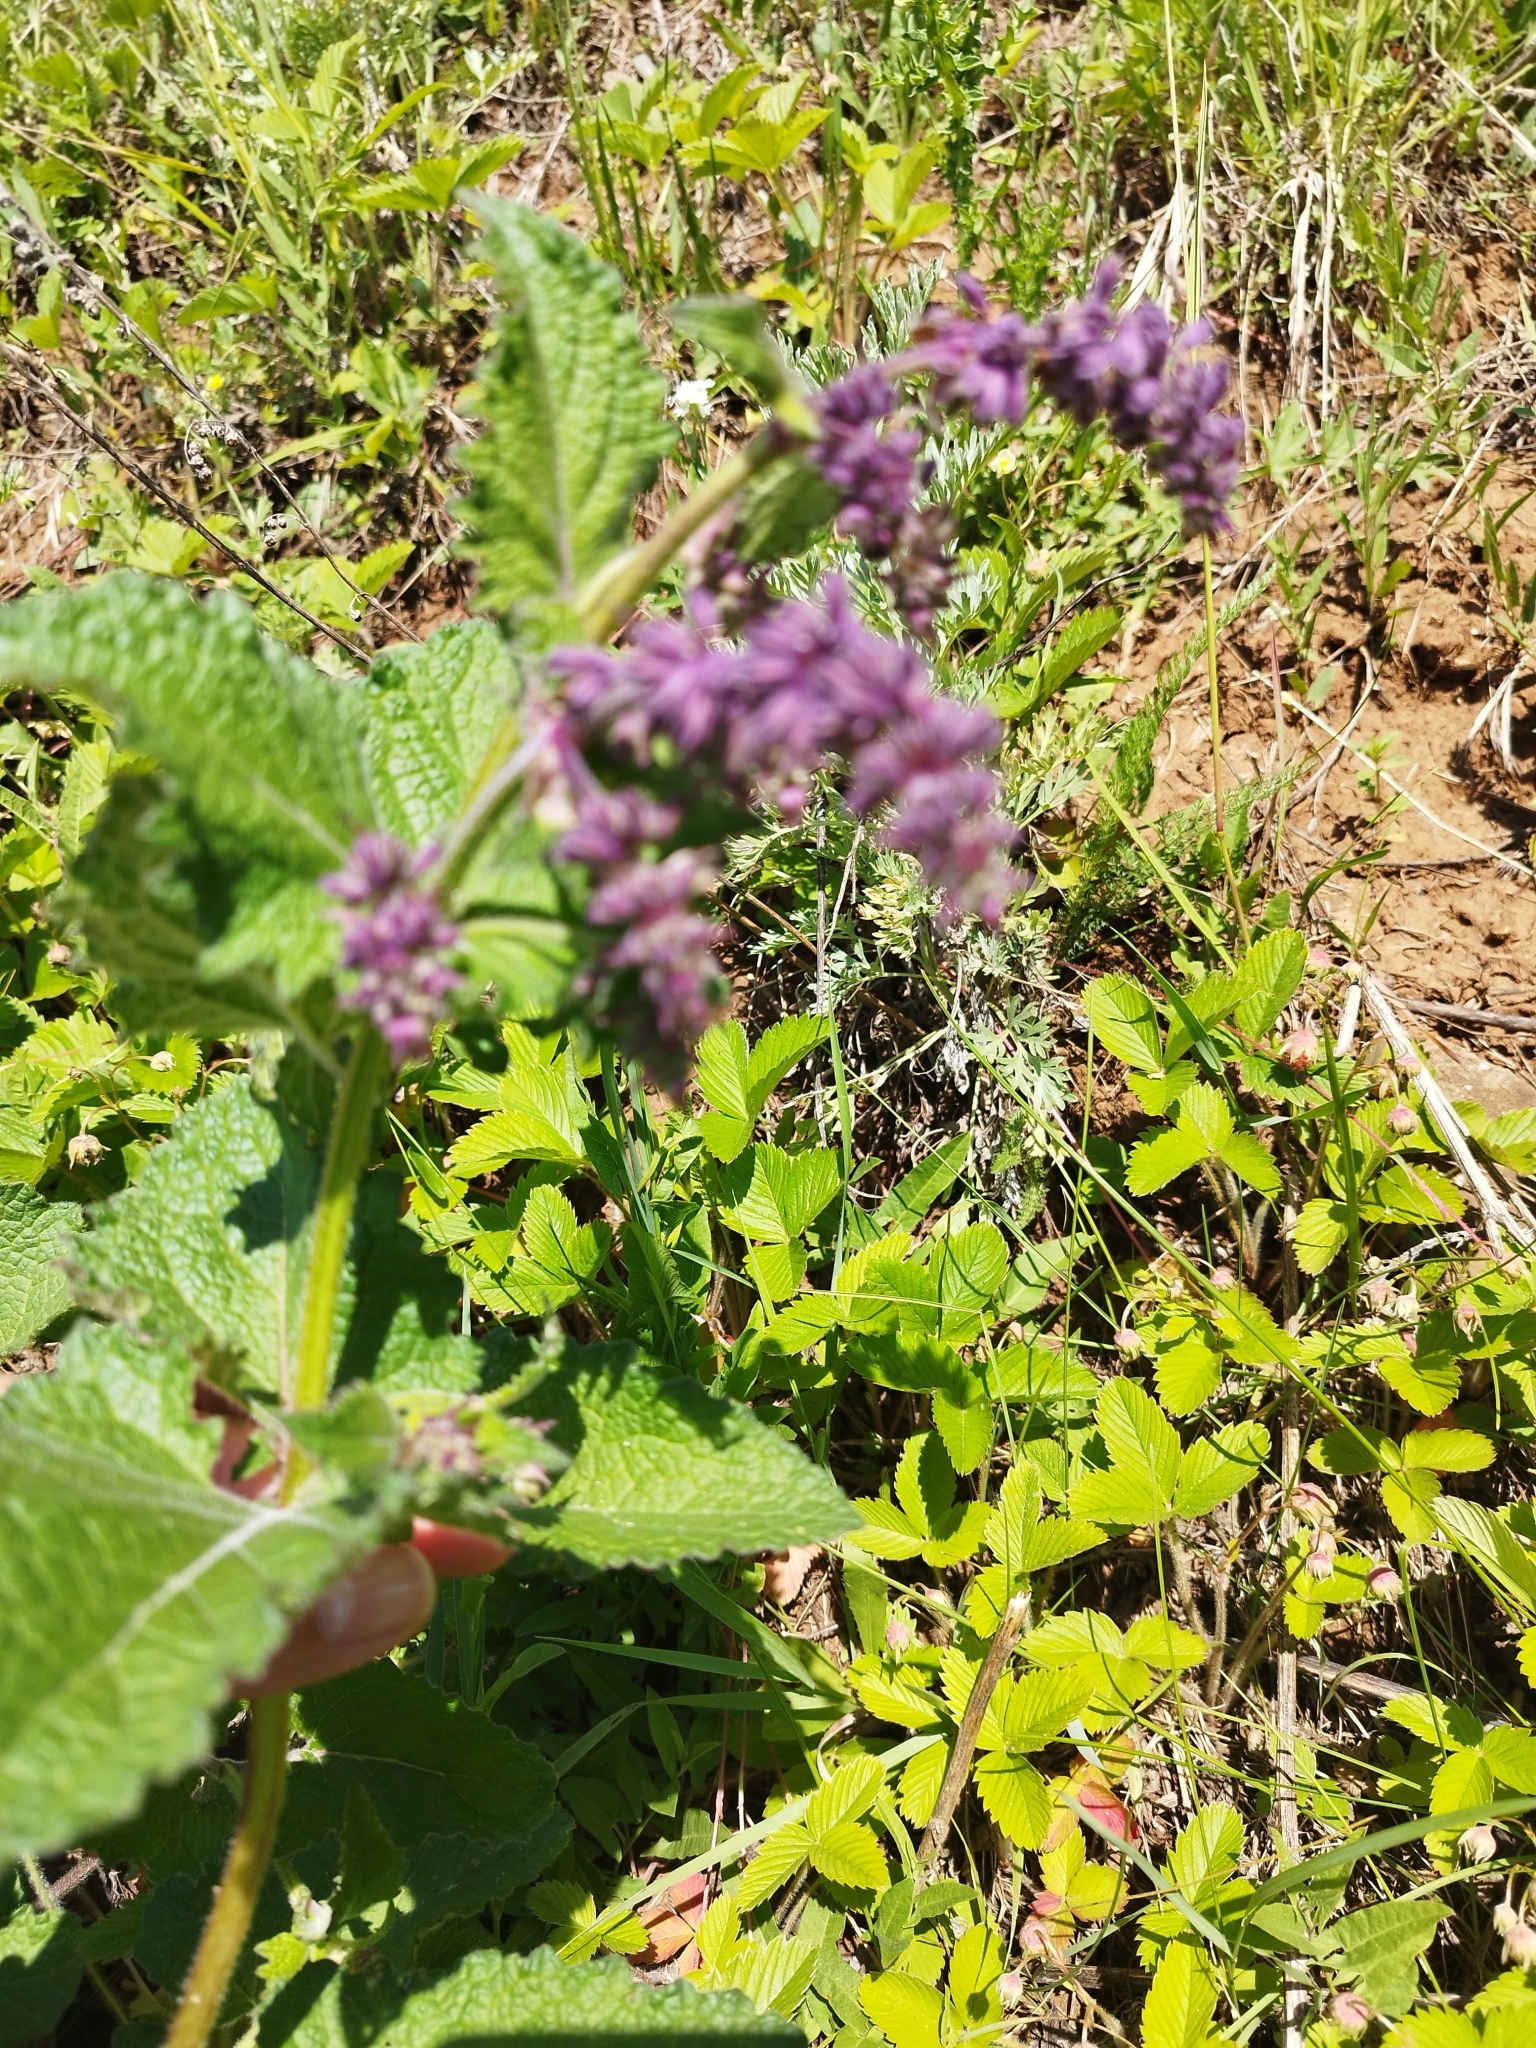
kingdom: Plantae
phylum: Tracheophyta
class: Magnoliopsida
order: Lamiales
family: Lamiaceae
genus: Salvia
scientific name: Salvia verticillata
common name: Whorled clary
